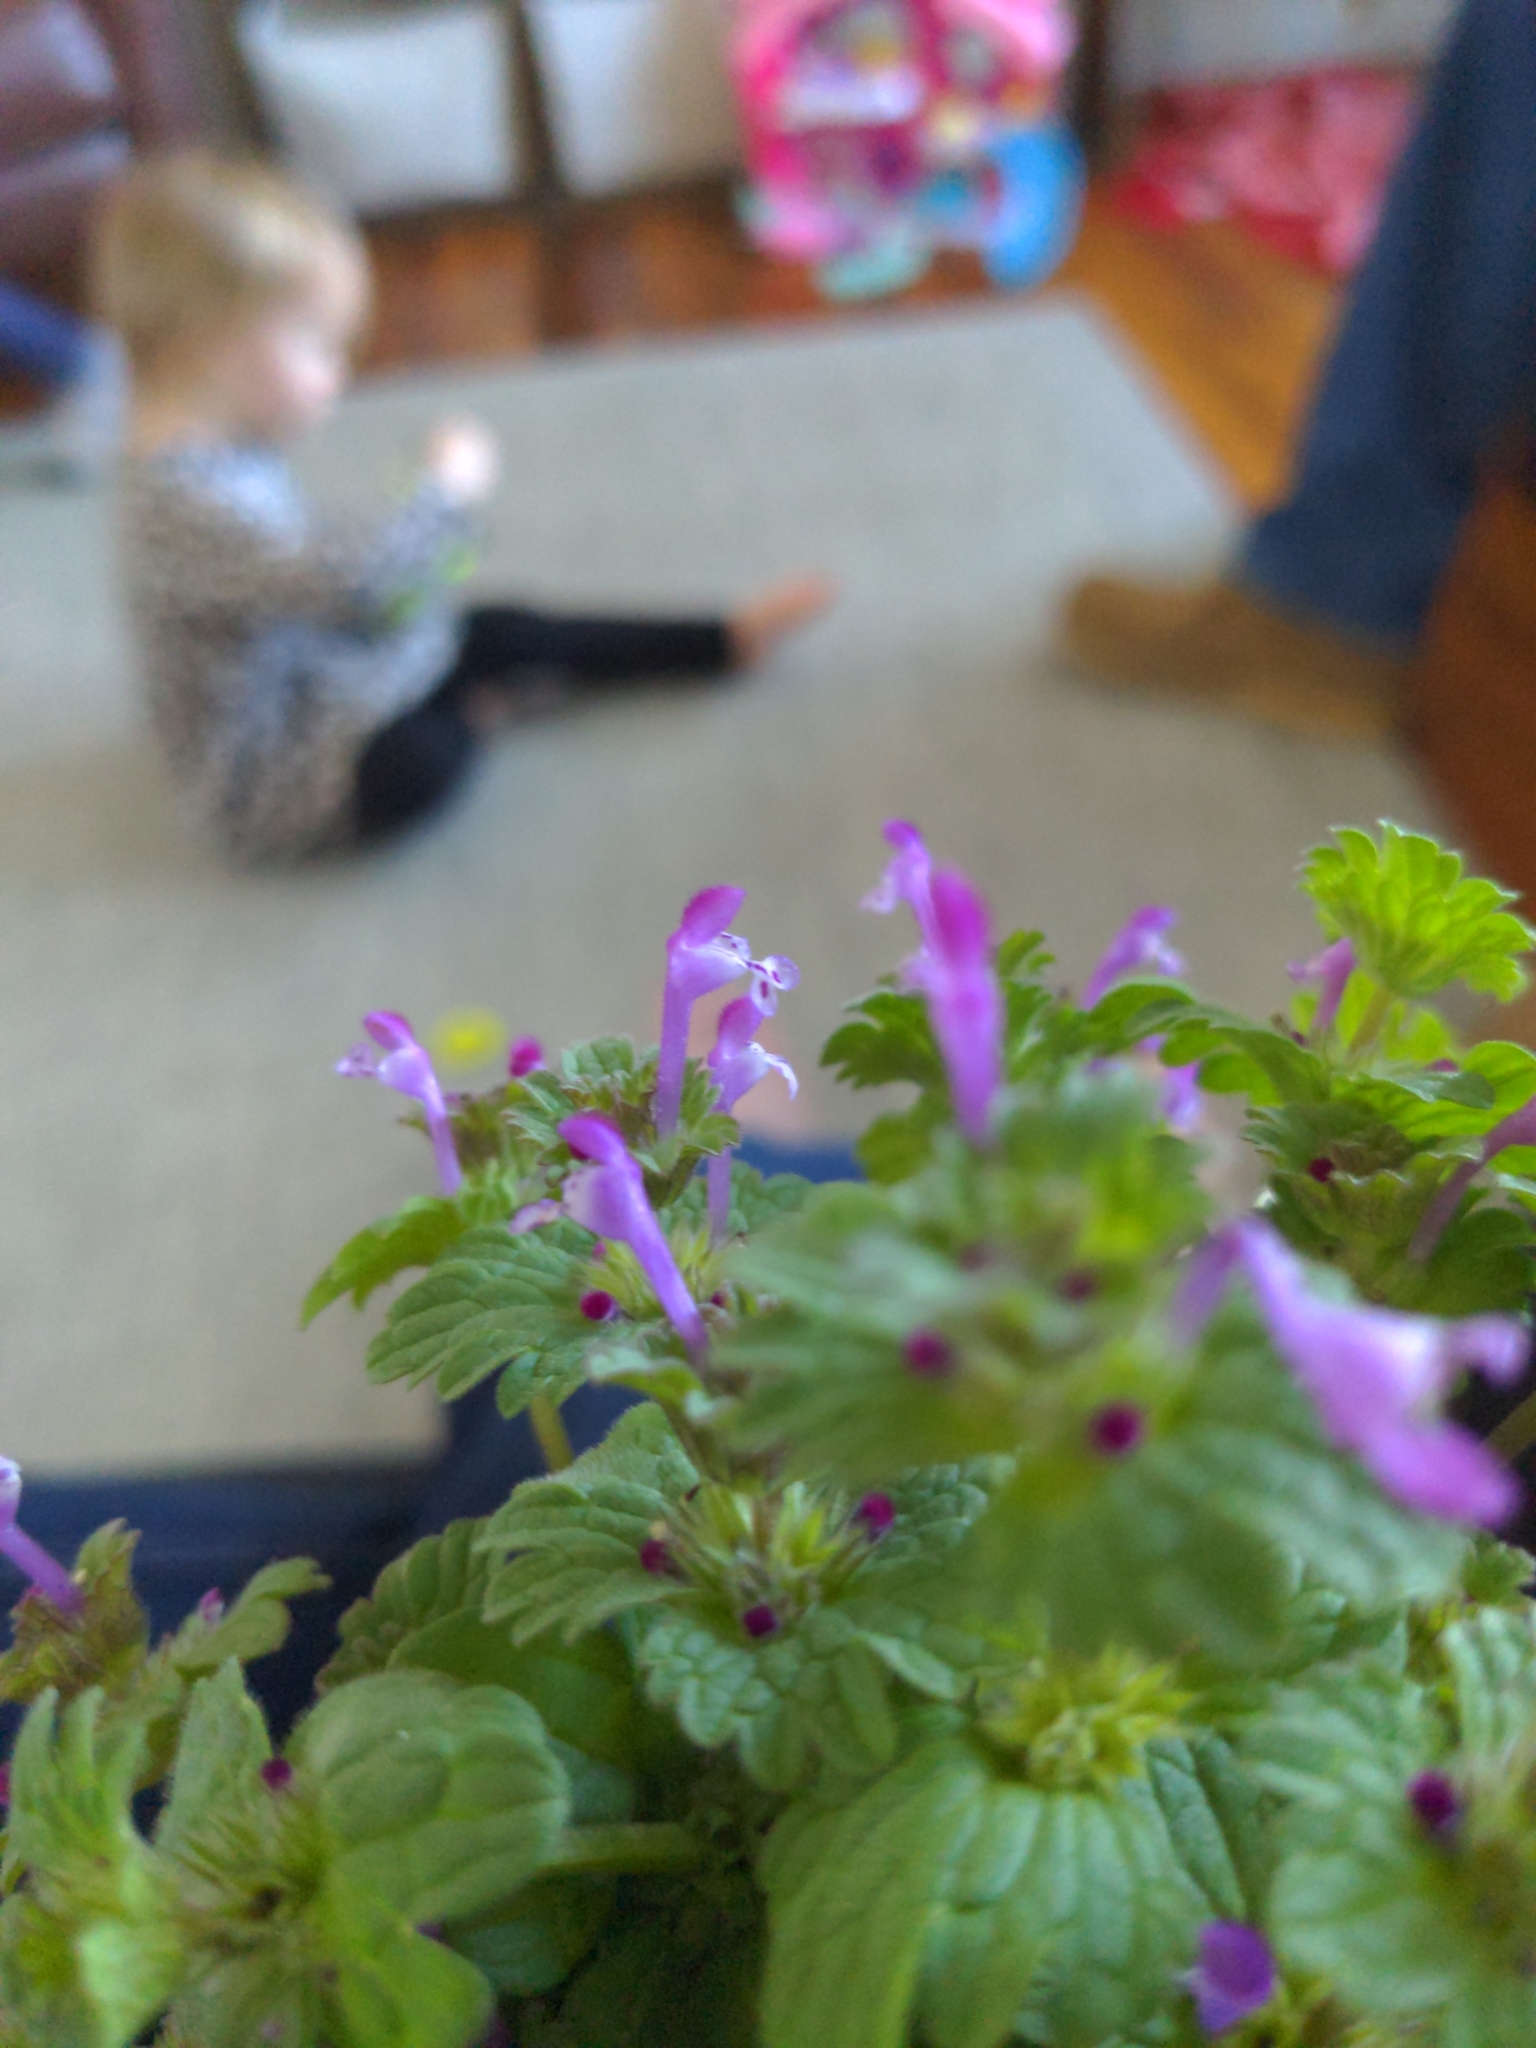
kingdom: Plantae
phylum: Tracheophyta
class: Magnoliopsida
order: Lamiales
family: Lamiaceae
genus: Lamium
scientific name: Lamium amplexicaule
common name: Henbit dead-nettle
